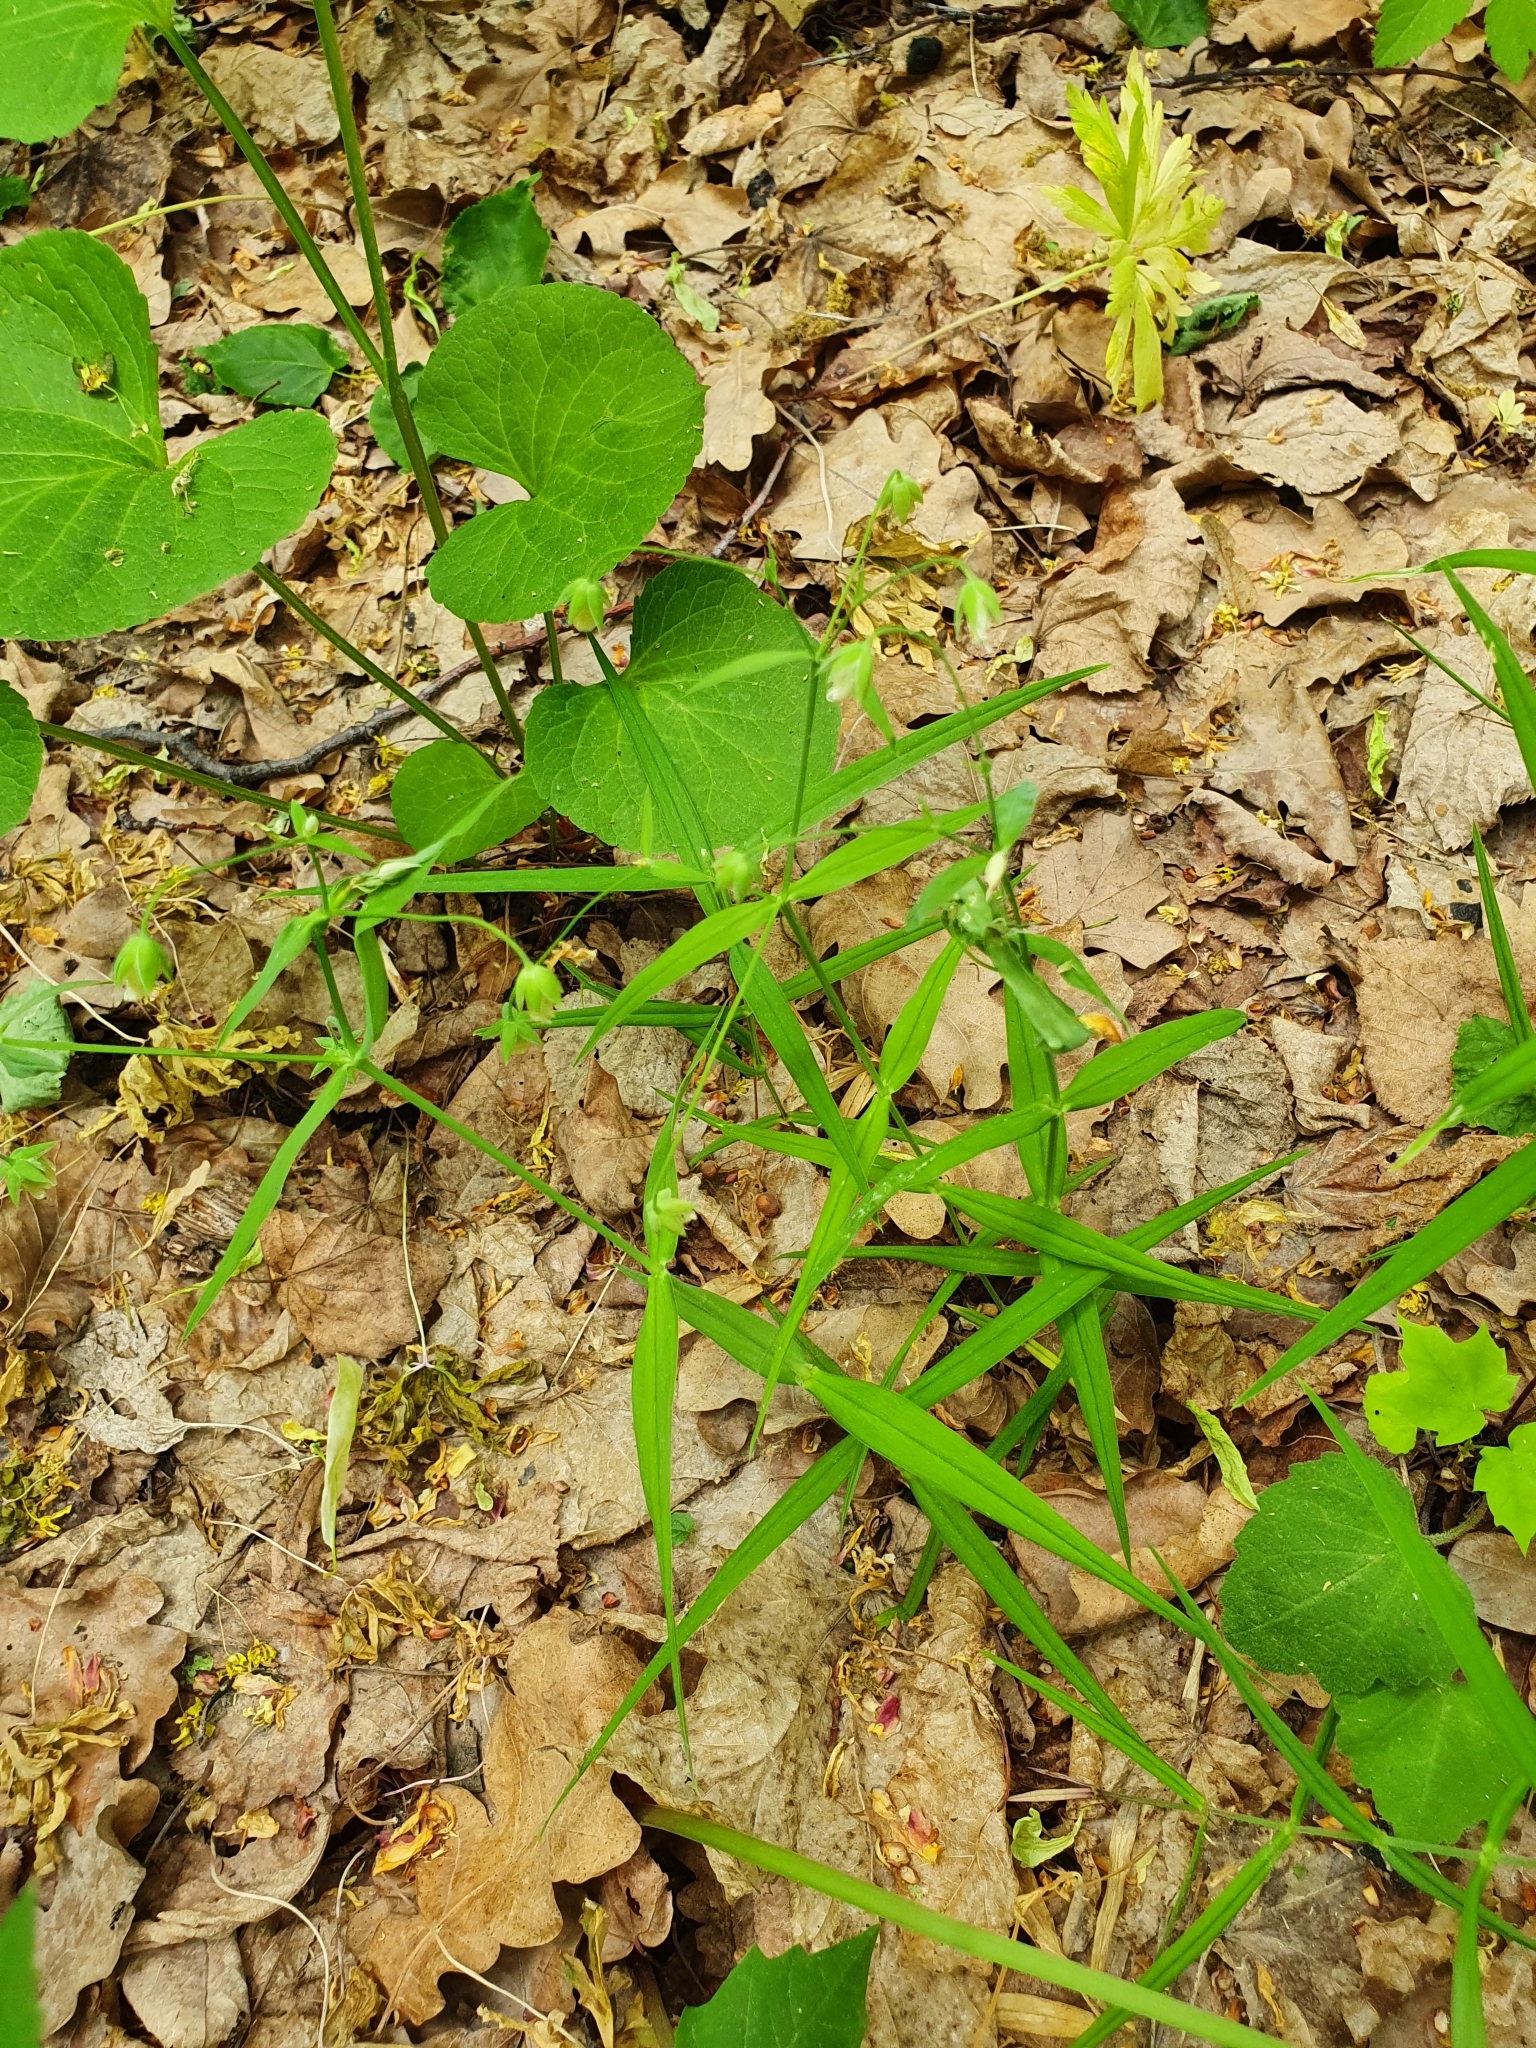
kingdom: Plantae
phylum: Tracheophyta
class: Magnoliopsida
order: Caryophyllales
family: Caryophyllaceae
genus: Rabelera
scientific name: Rabelera holostea
